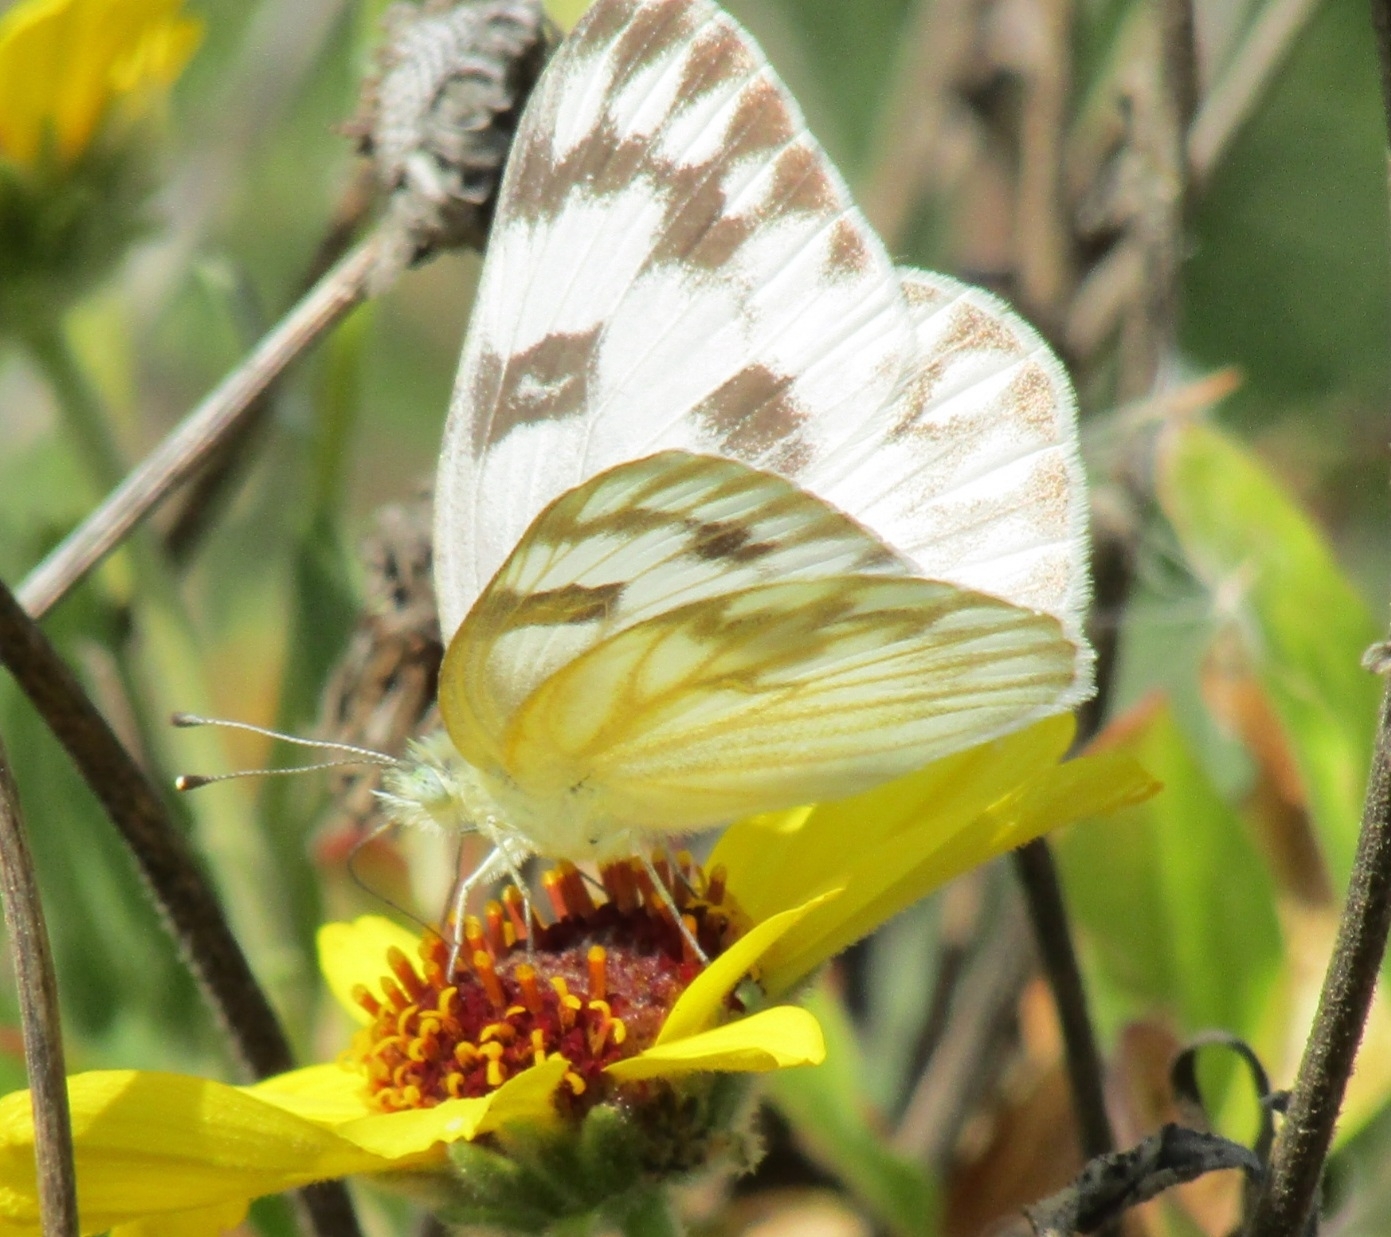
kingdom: Animalia
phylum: Arthropoda
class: Insecta
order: Lepidoptera
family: Pieridae
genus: Pontia
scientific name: Pontia protodice
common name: Checkered white
